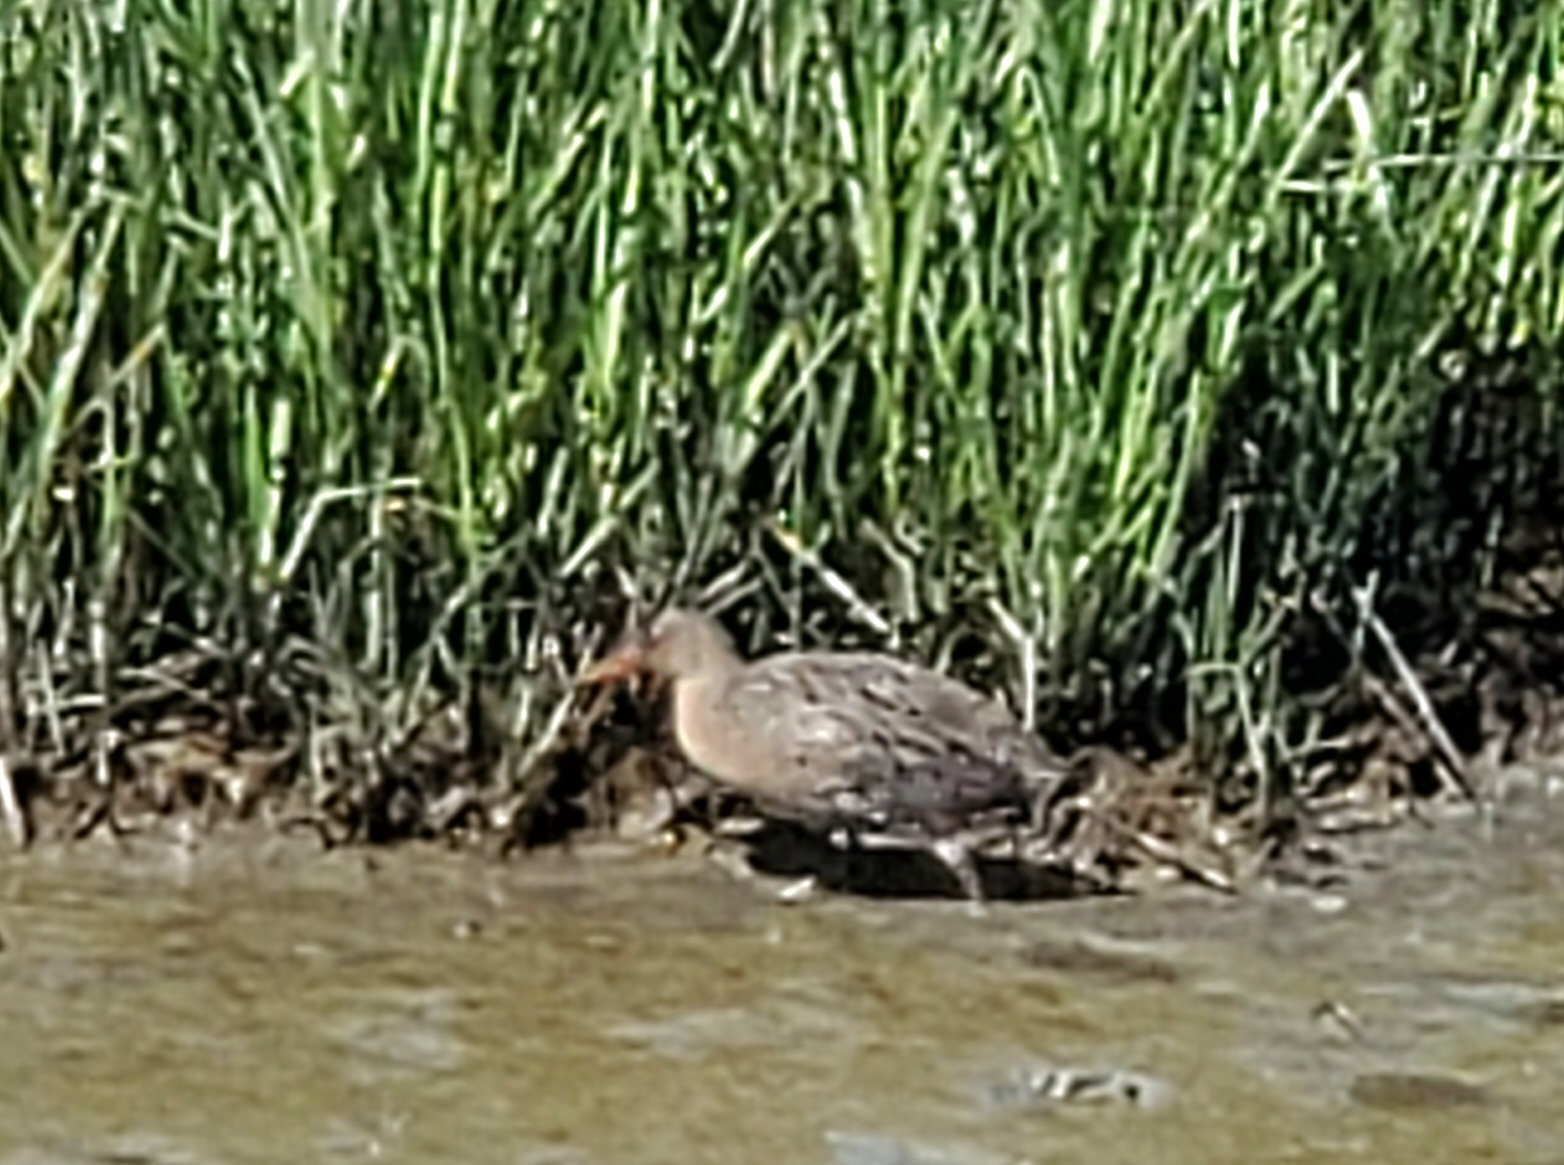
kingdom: Animalia
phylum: Chordata
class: Aves
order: Gruiformes
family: Rallidae
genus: Rallus
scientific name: Rallus obsoletus
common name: Ridgway's rail
